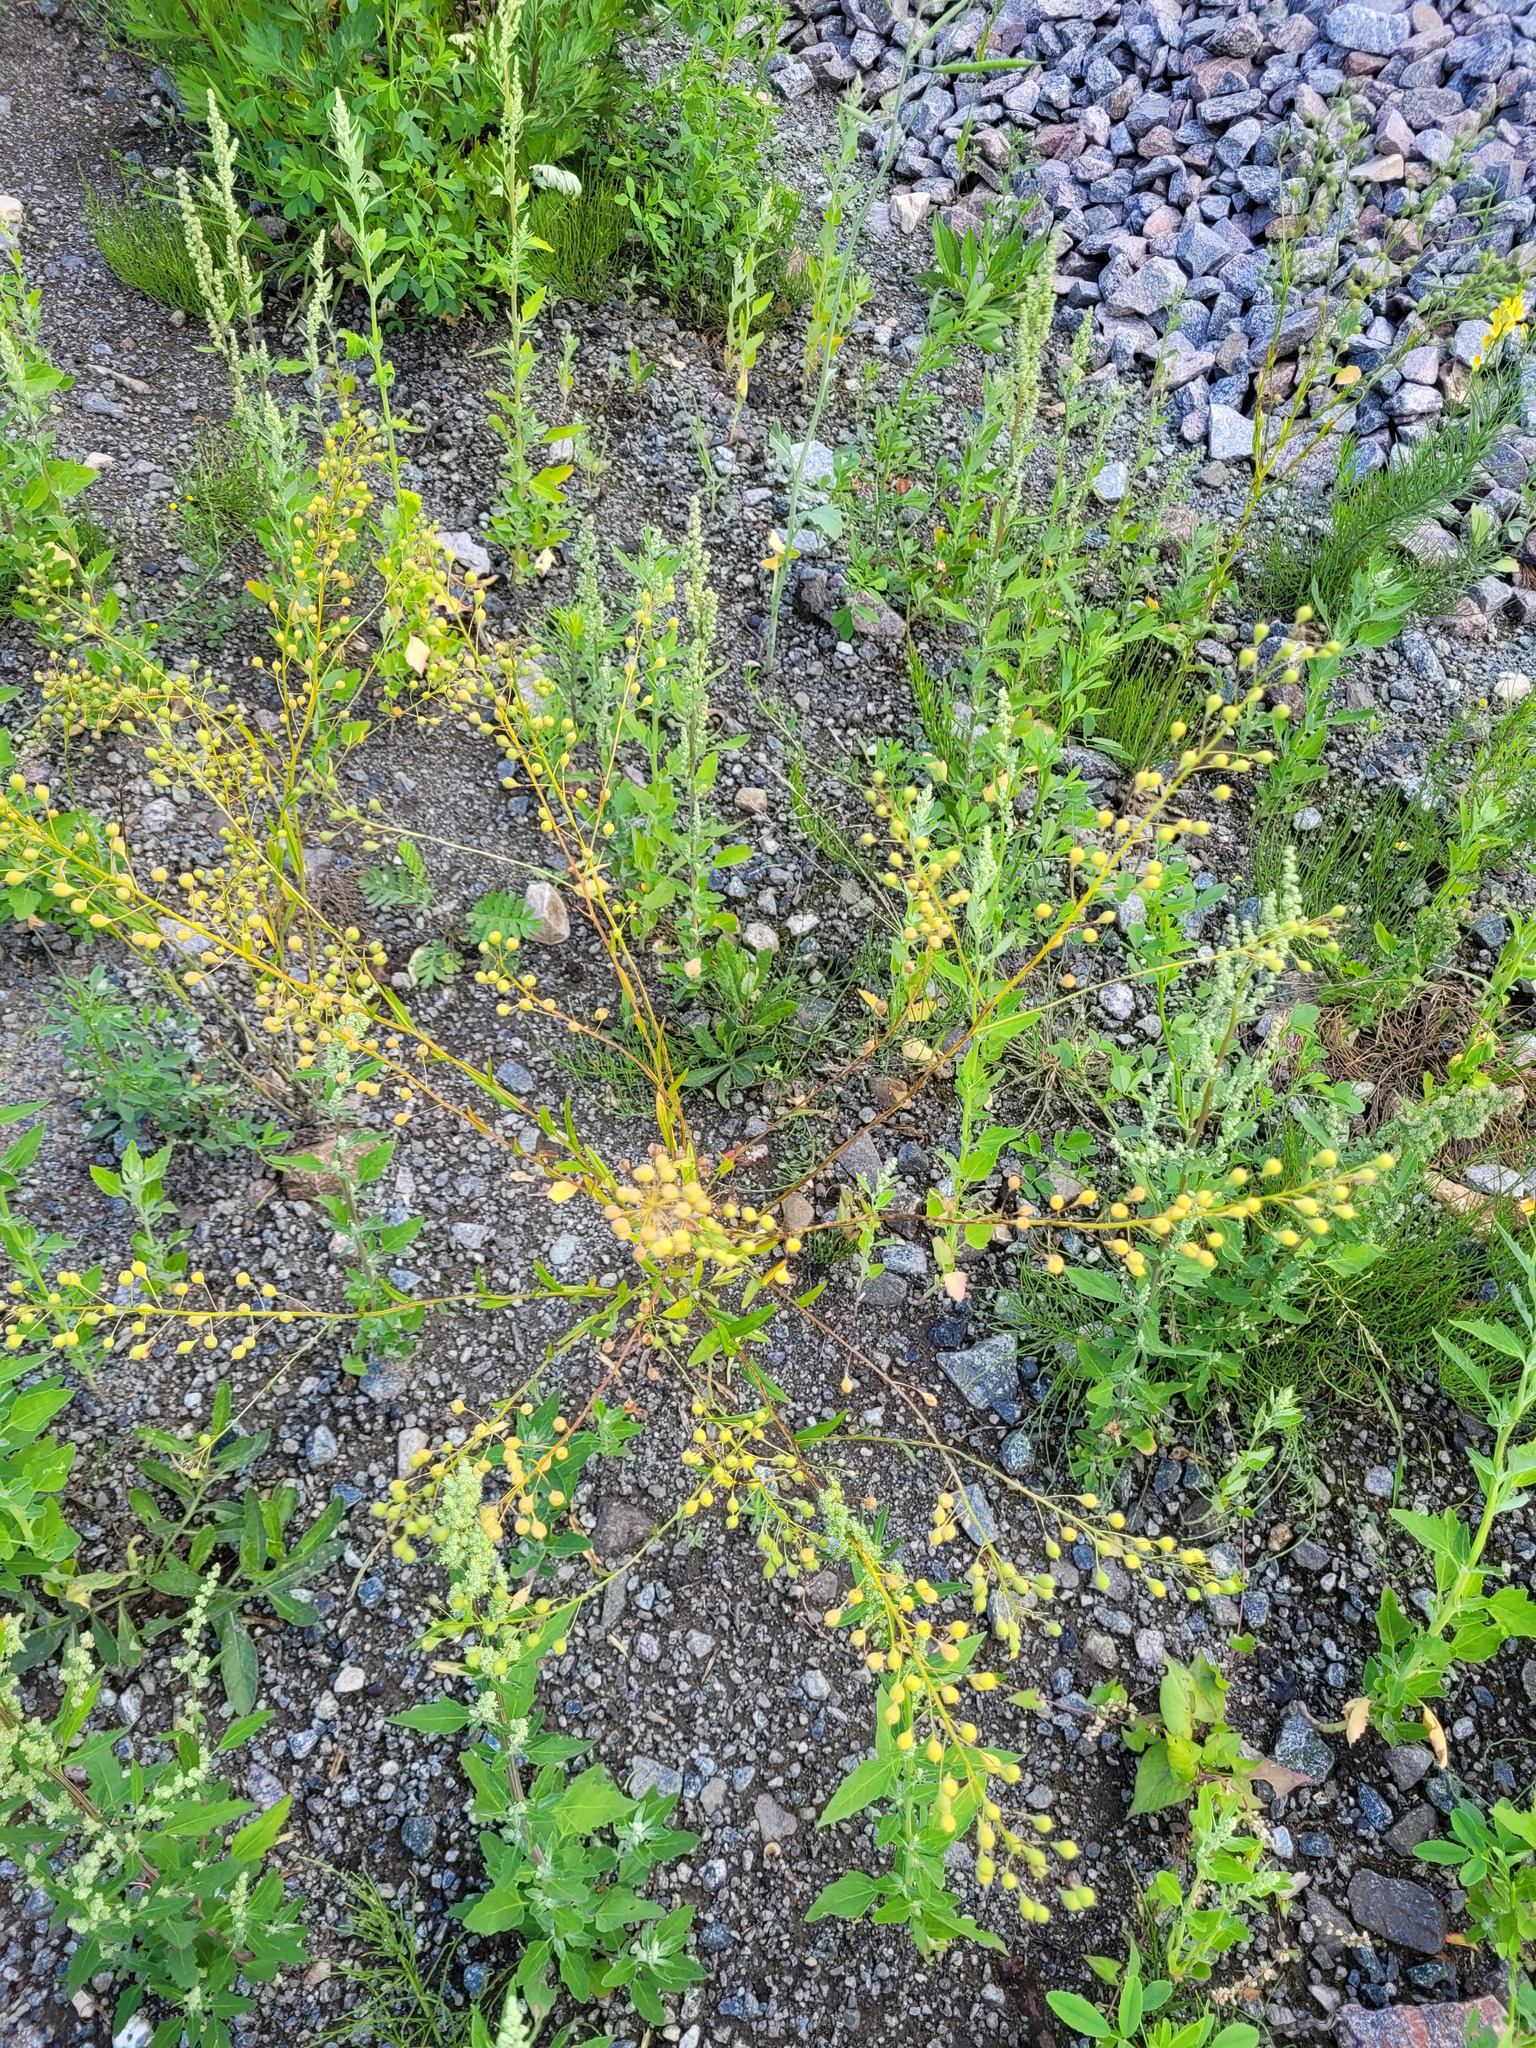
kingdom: Plantae
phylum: Tracheophyta
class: Magnoliopsida
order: Brassicales
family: Brassicaceae
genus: Camelina
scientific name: Camelina sativa
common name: Gold-of-pleasure
